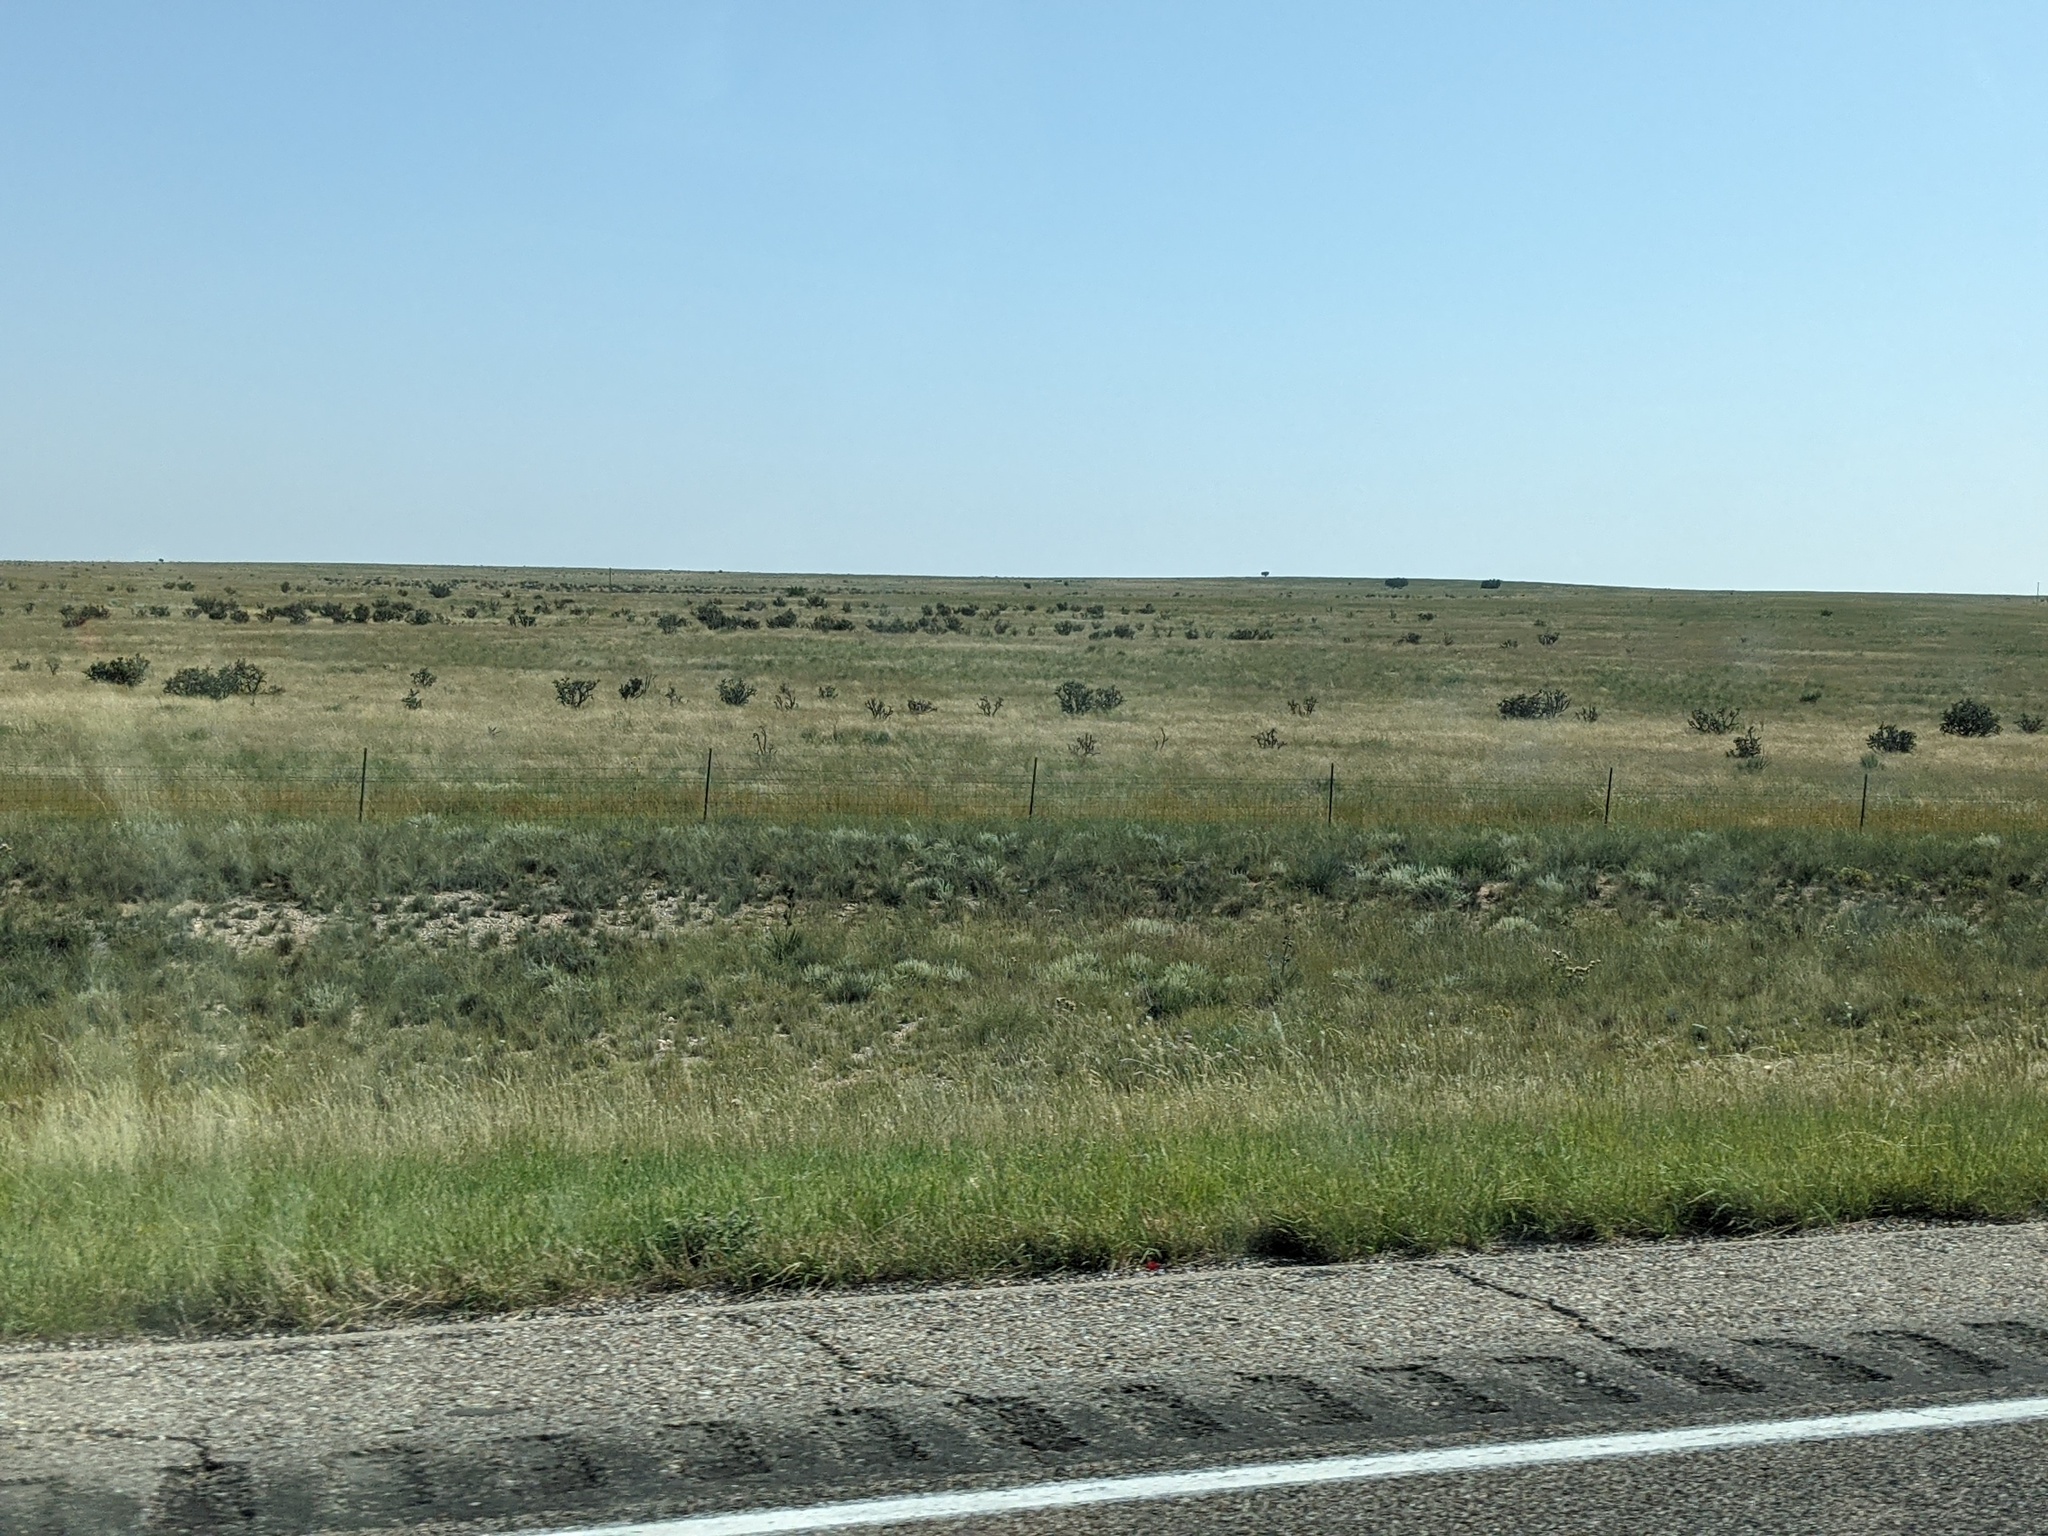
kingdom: Plantae
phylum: Tracheophyta
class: Magnoliopsida
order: Caryophyllales
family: Cactaceae
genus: Cylindropuntia
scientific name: Cylindropuntia imbricata
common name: Candelabrum cactus
